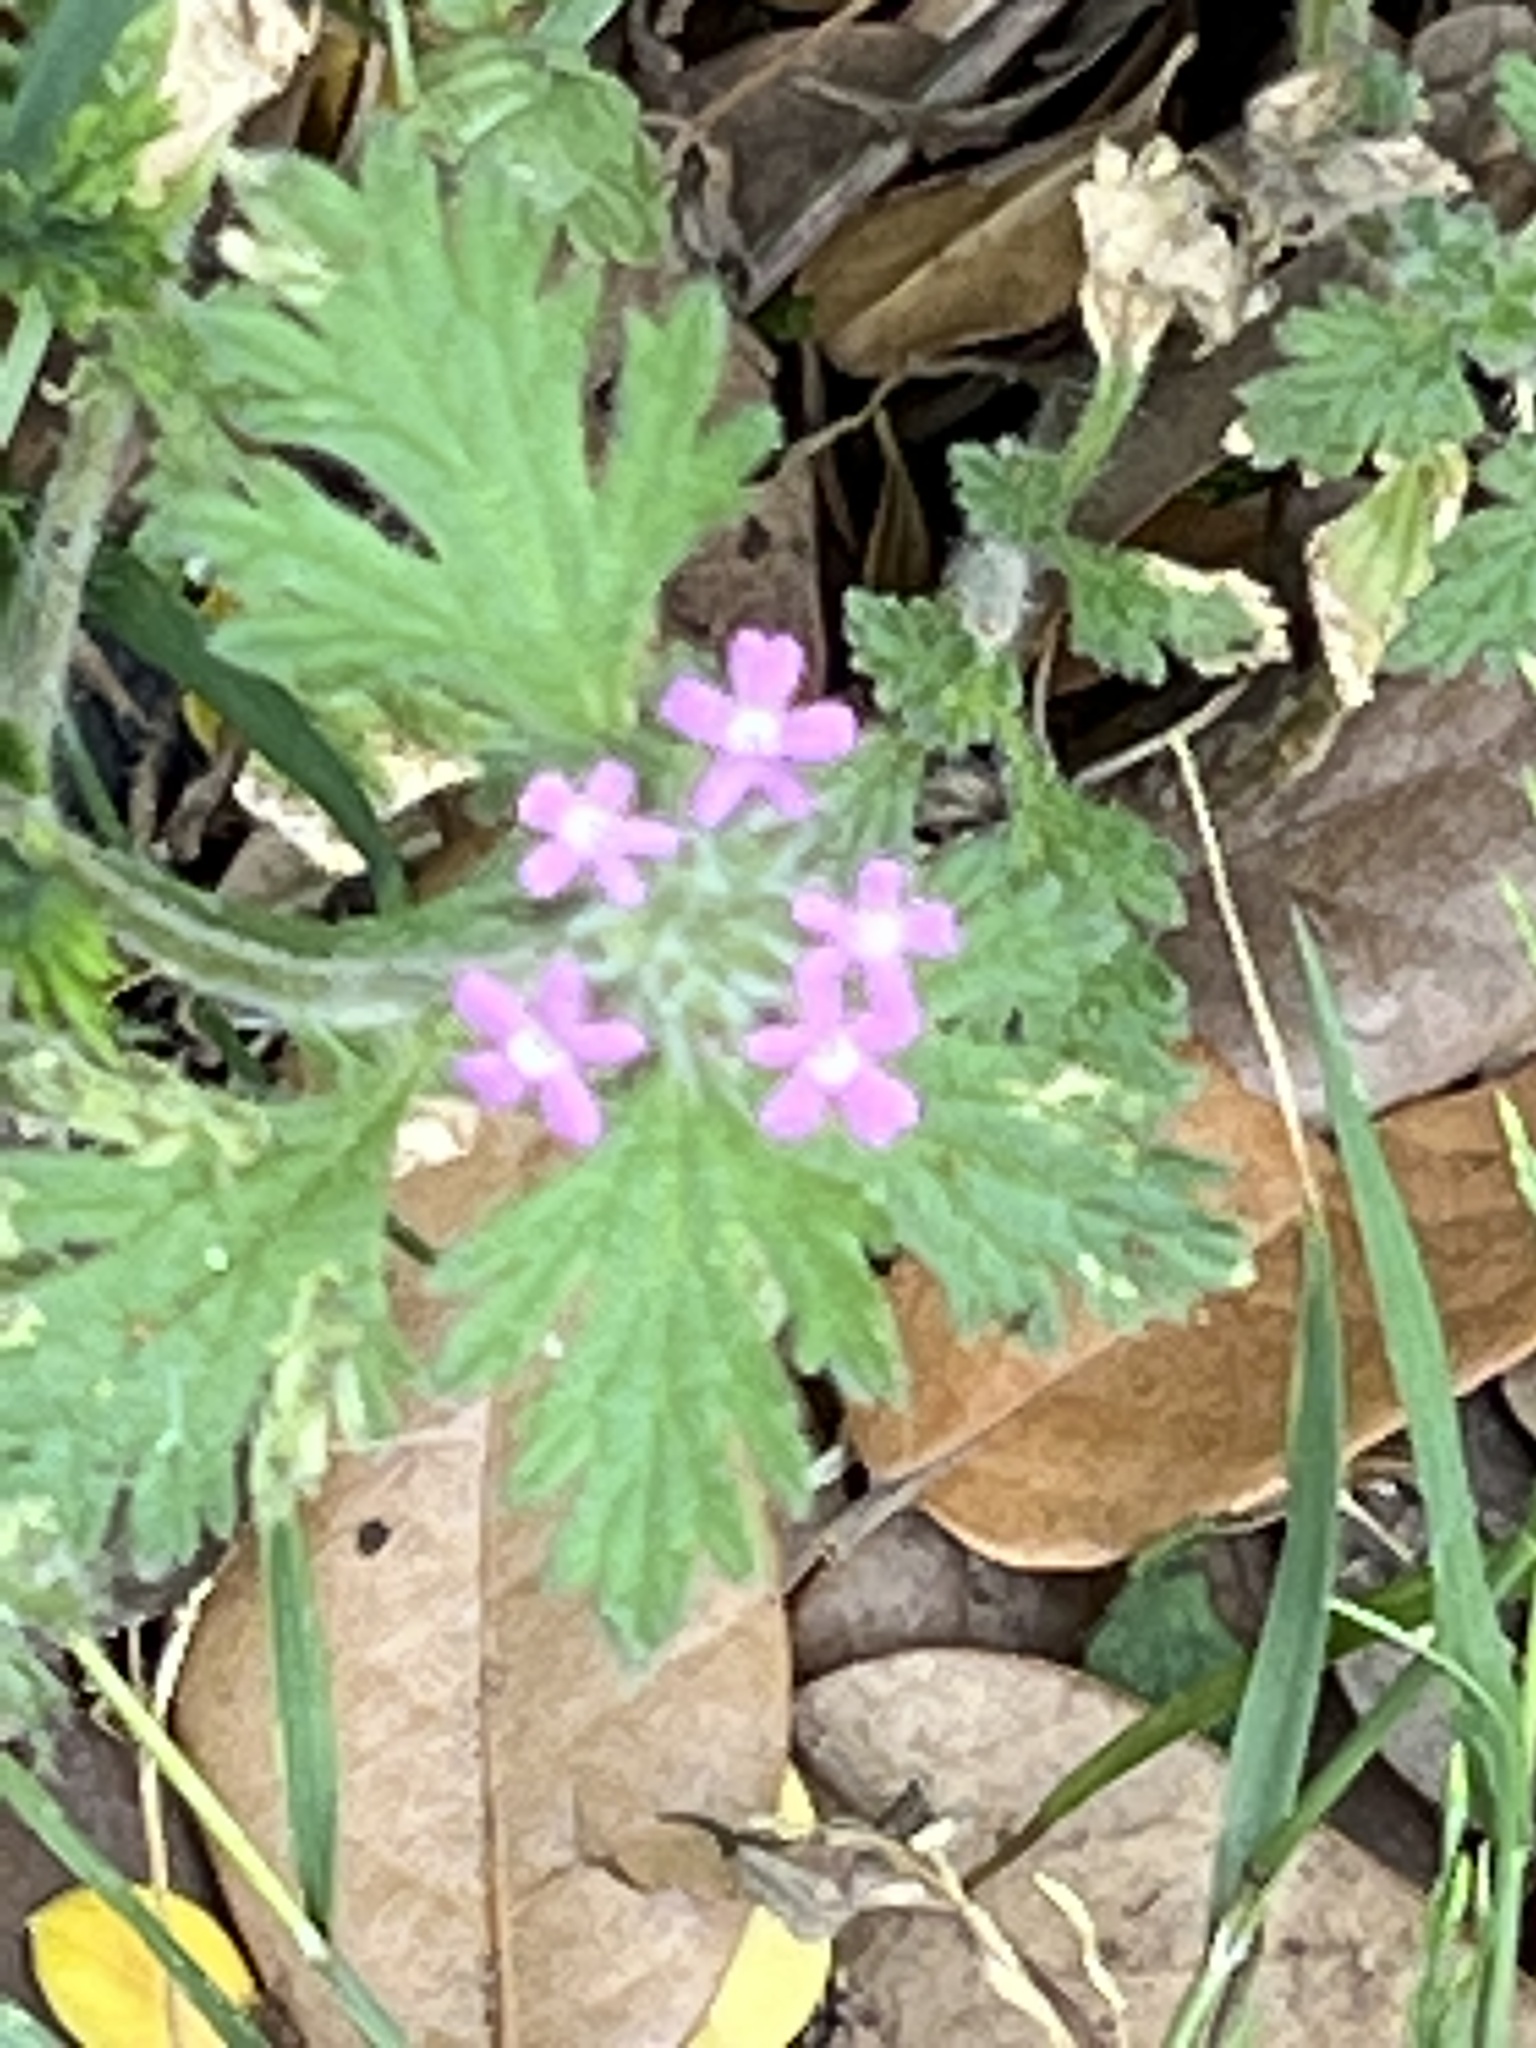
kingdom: Plantae
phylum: Tracheophyta
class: Magnoliopsida
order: Lamiales
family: Verbenaceae
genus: Verbena
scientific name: Verbena pumila
